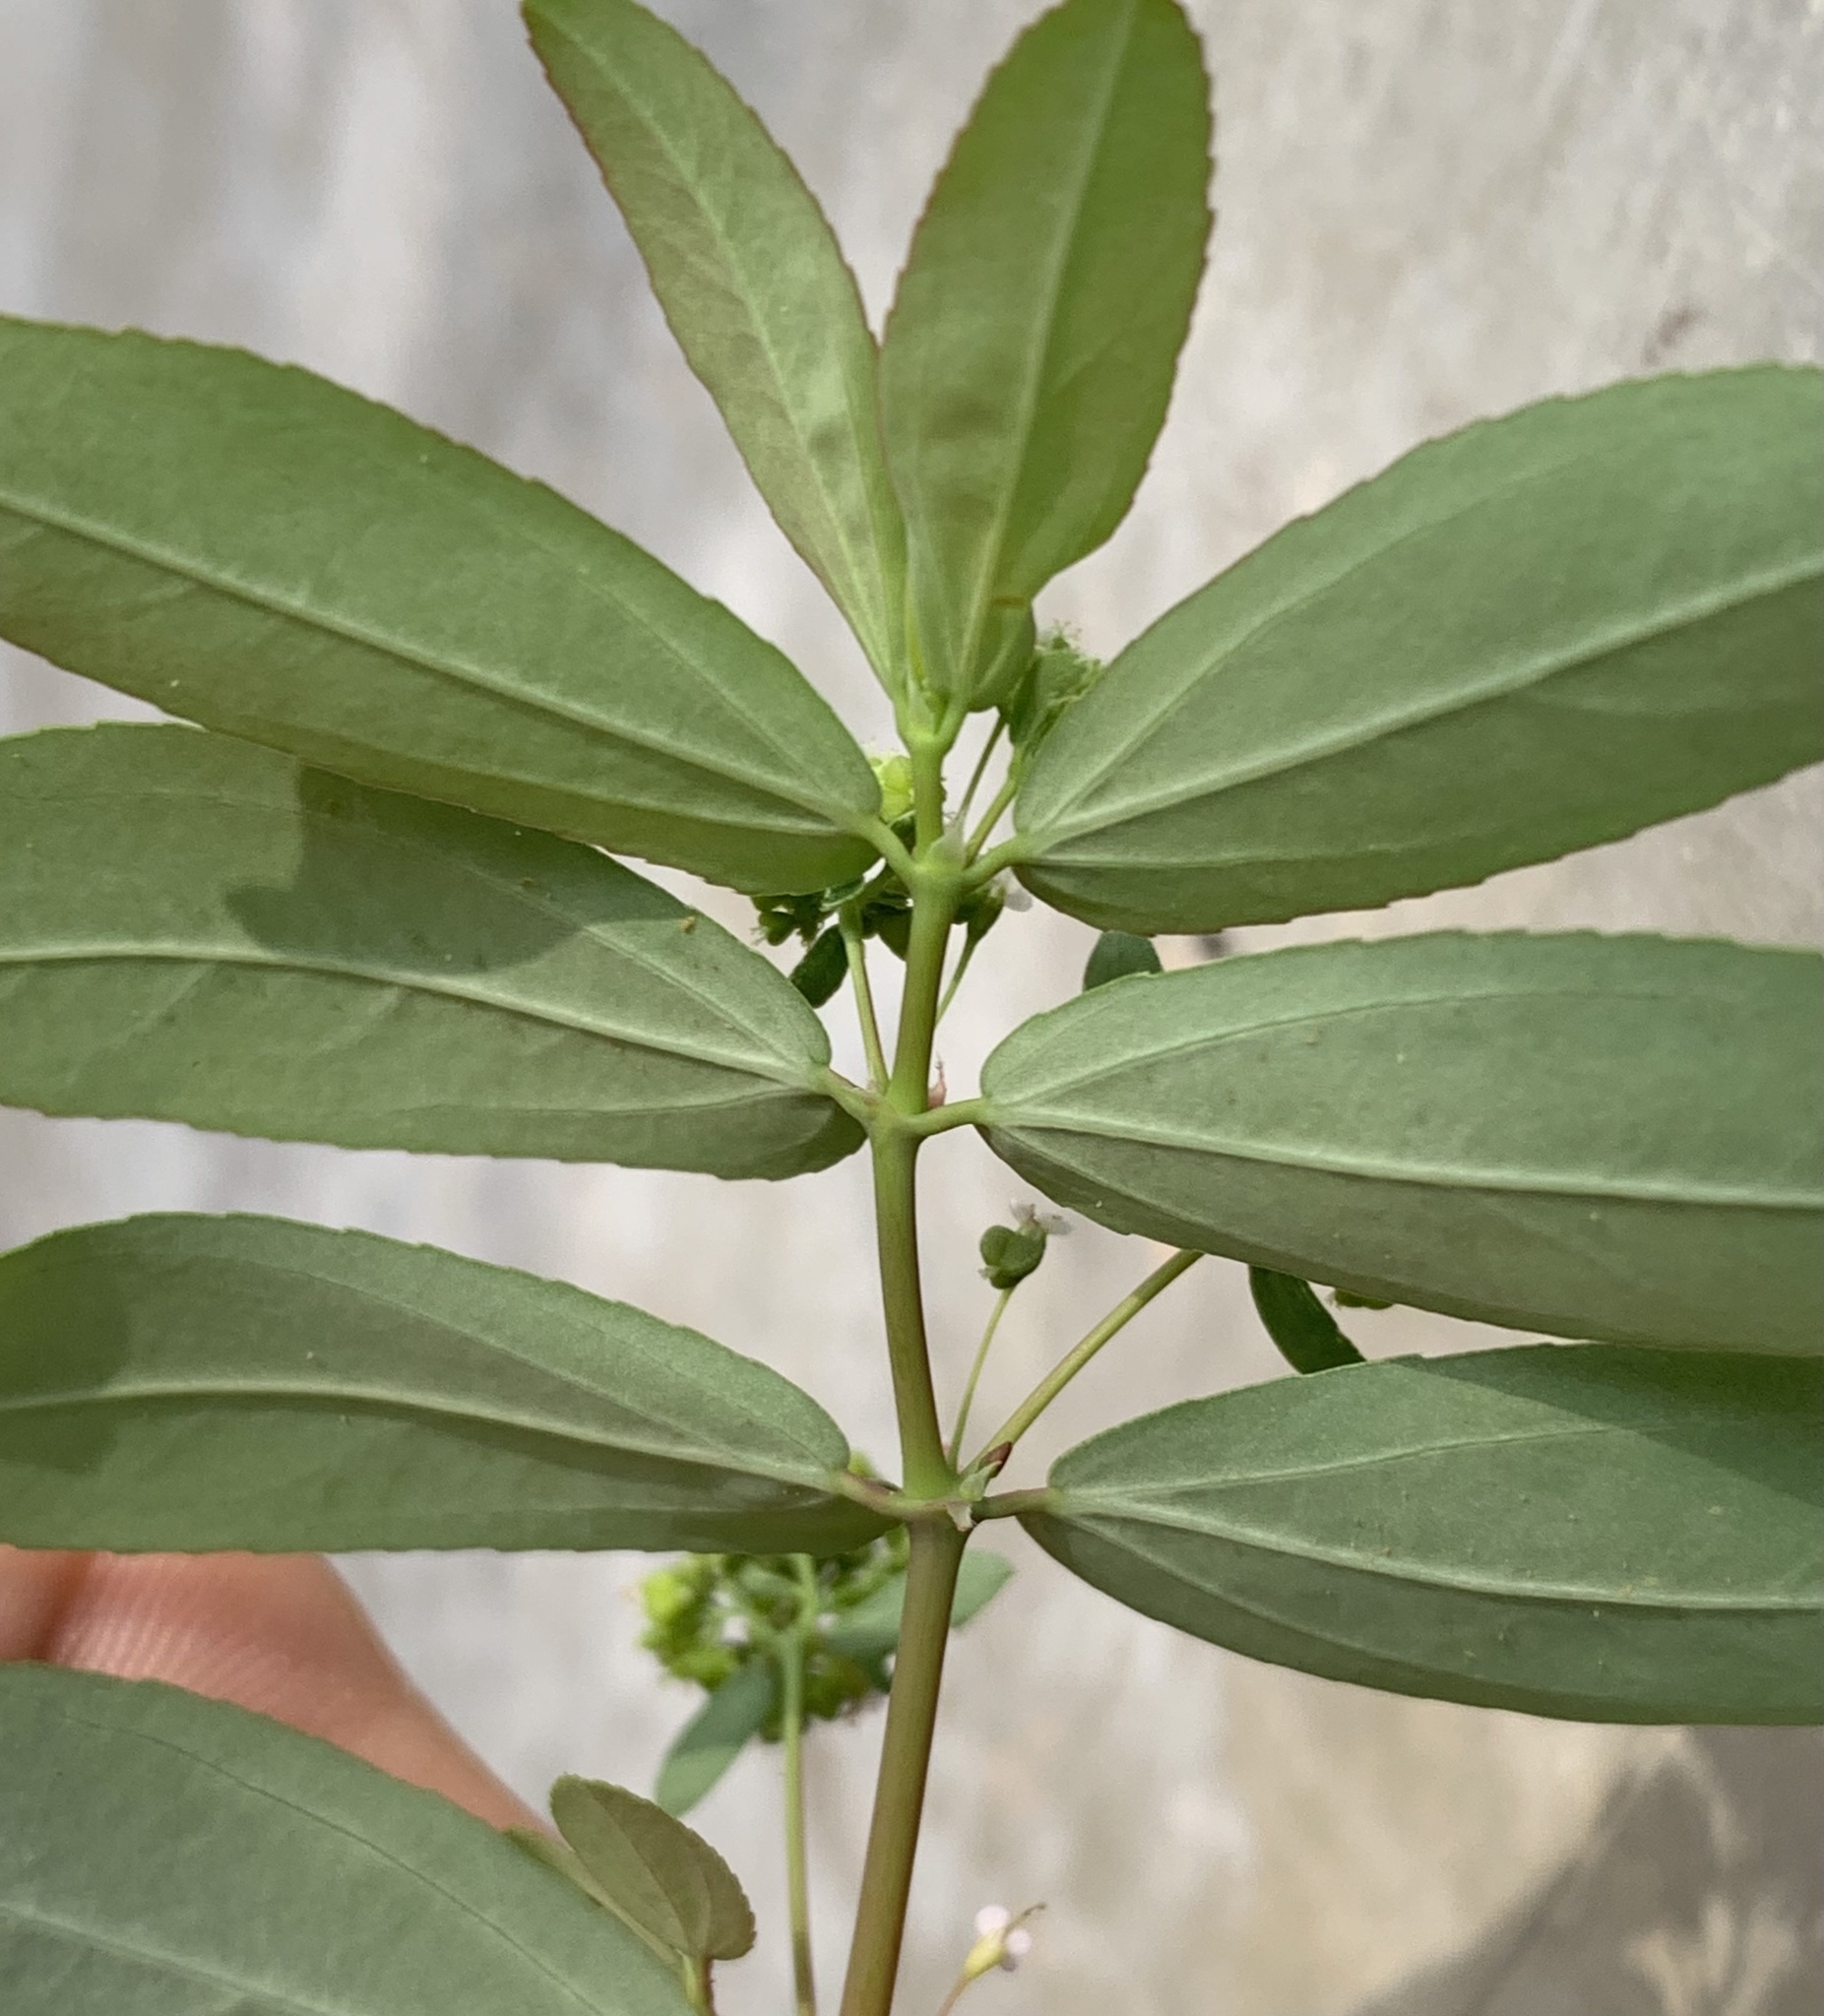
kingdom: Plantae
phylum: Tracheophyta
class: Magnoliopsida
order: Malpighiales
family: Euphorbiaceae
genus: Euphorbia
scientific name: Euphorbia hypericifolia
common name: Graceful sandmat
